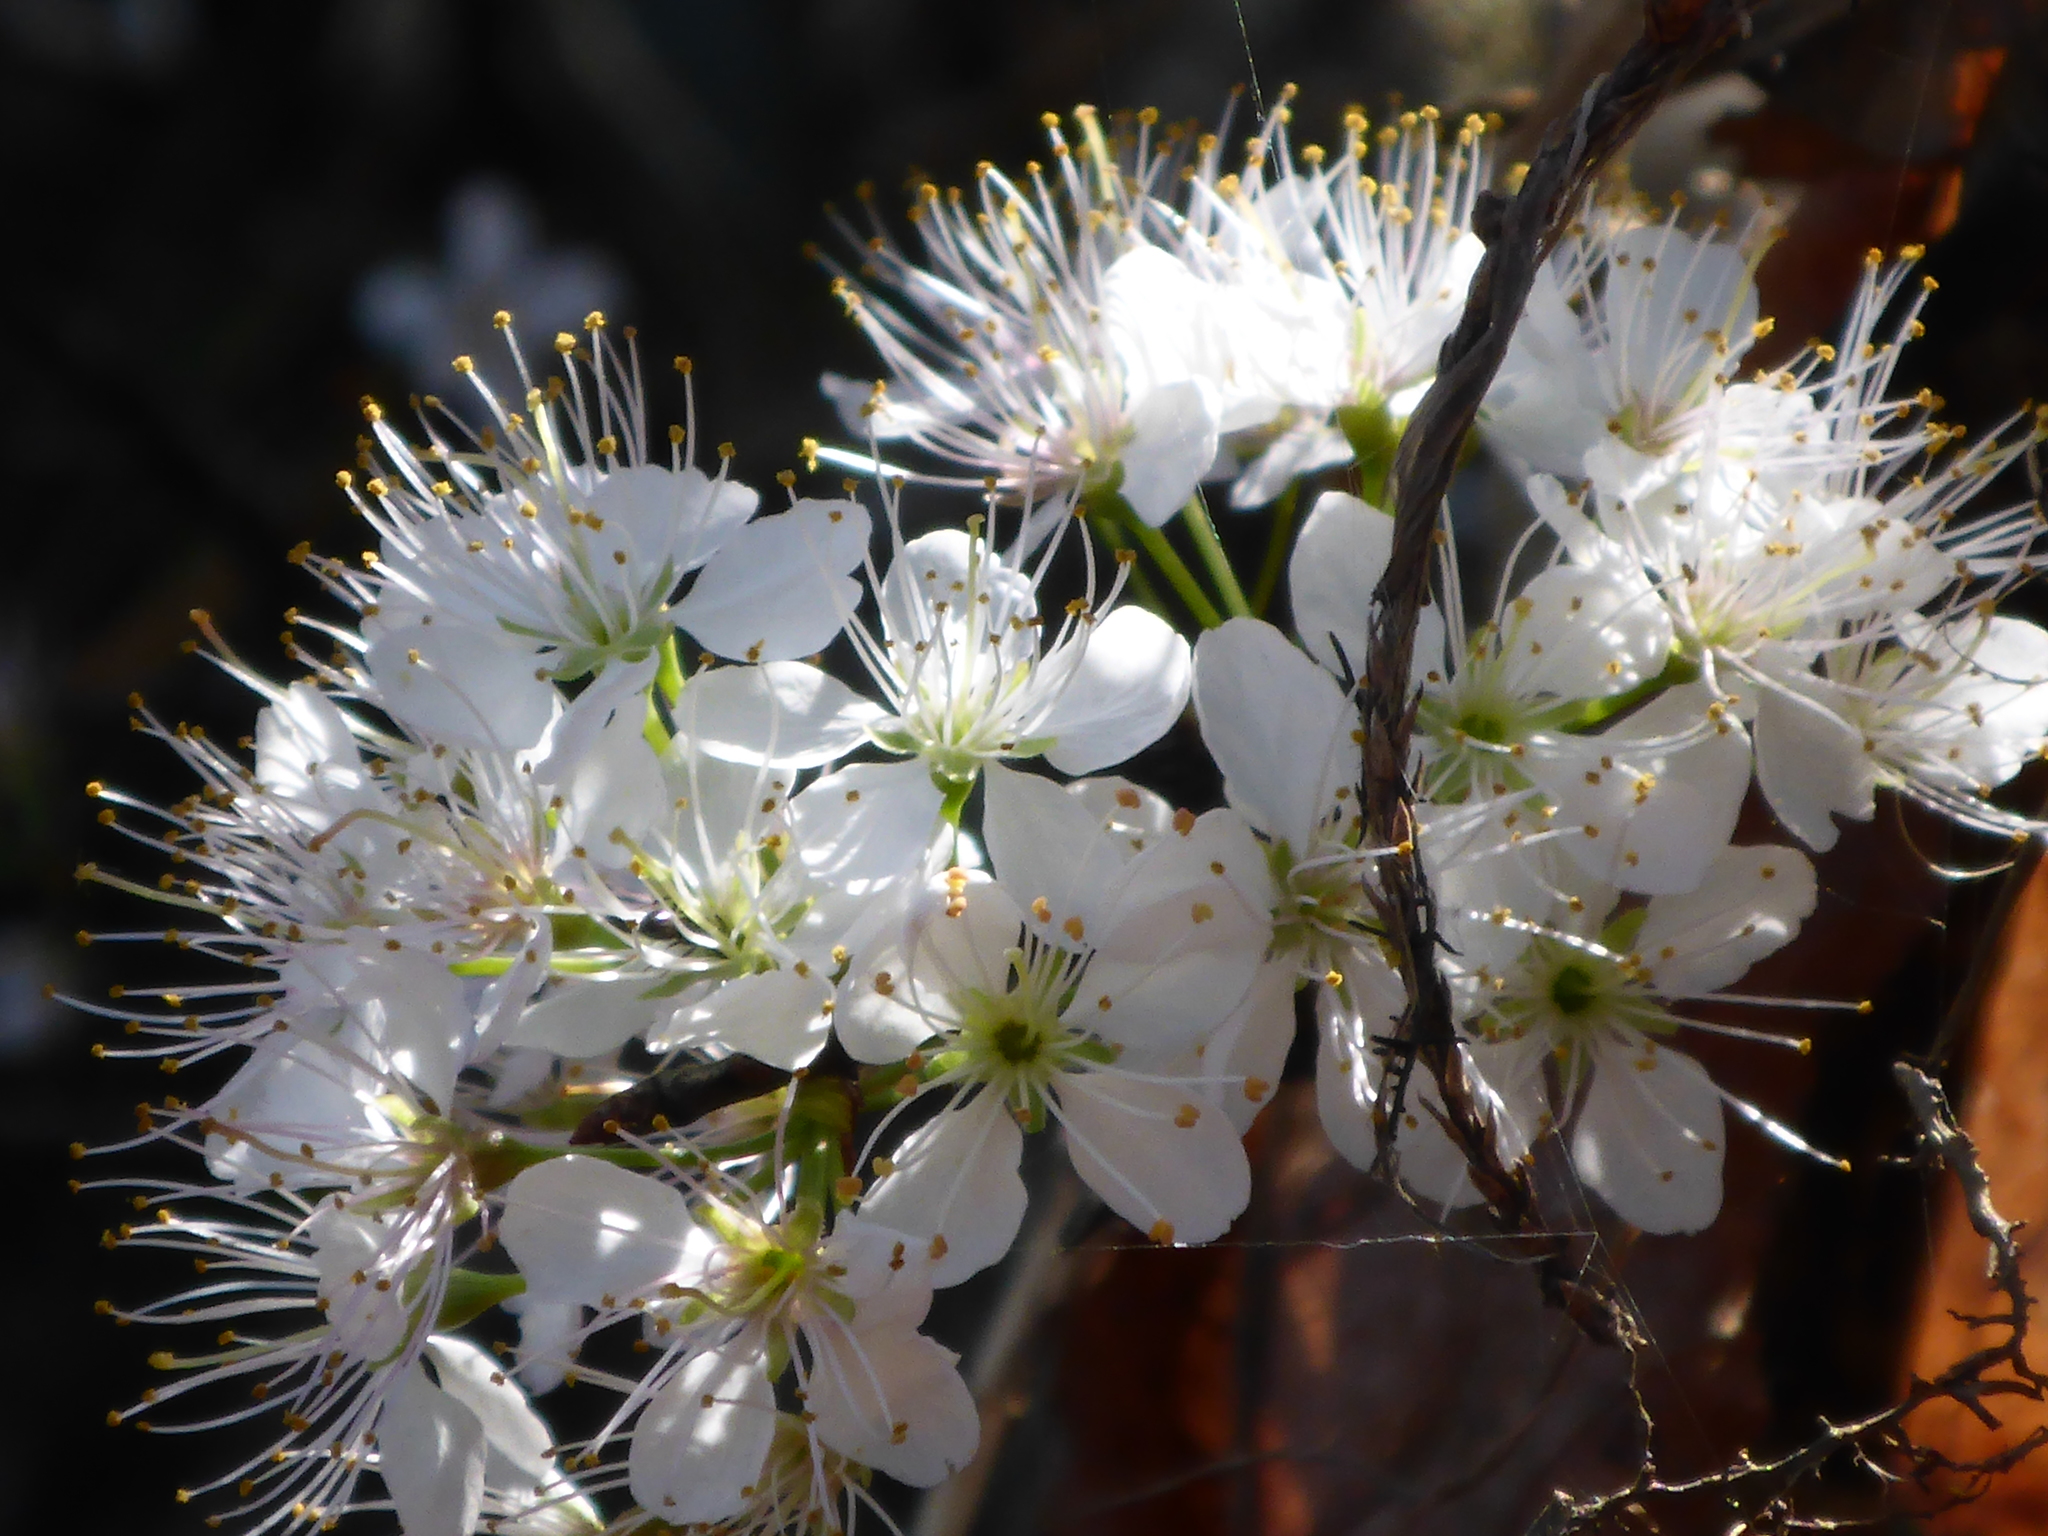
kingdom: Plantae
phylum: Tracheophyta
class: Magnoliopsida
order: Rosales
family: Rosaceae
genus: Prunus
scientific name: Prunus umbellata
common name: Allegheny plum
